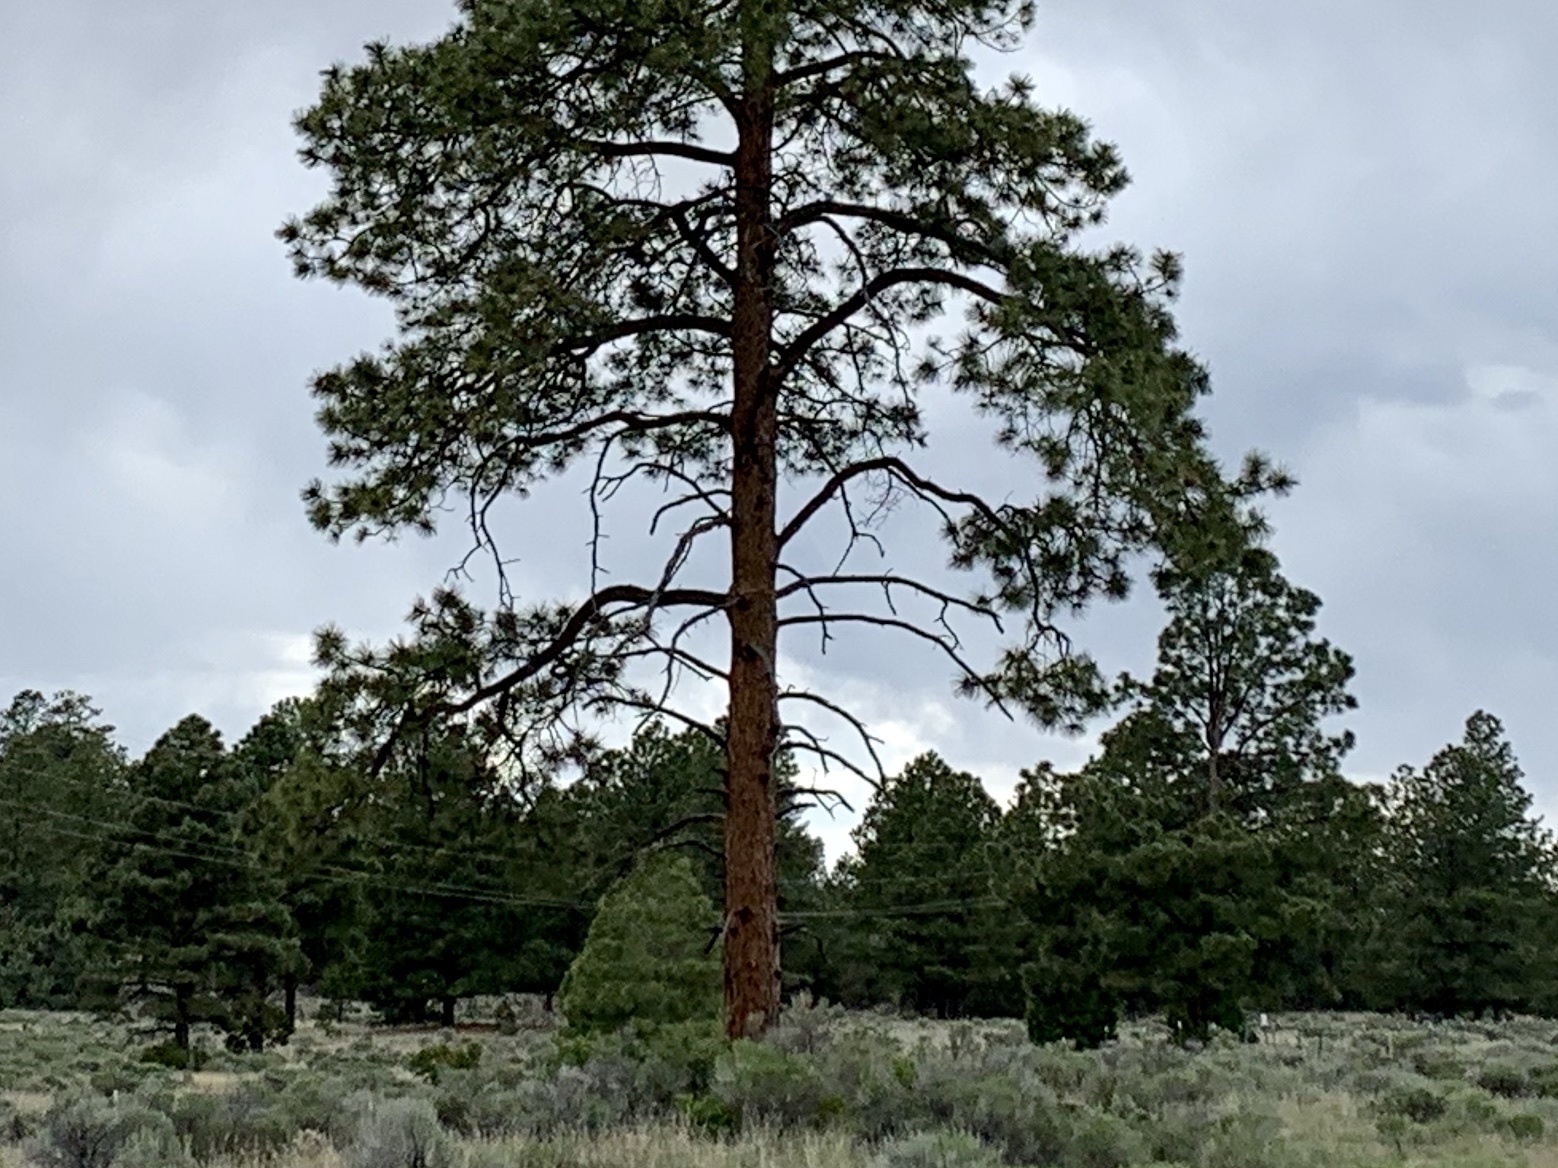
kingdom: Plantae
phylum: Tracheophyta
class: Pinopsida
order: Pinales
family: Pinaceae
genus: Pinus
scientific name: Pinus ponderosa
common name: Western yellow-pine
